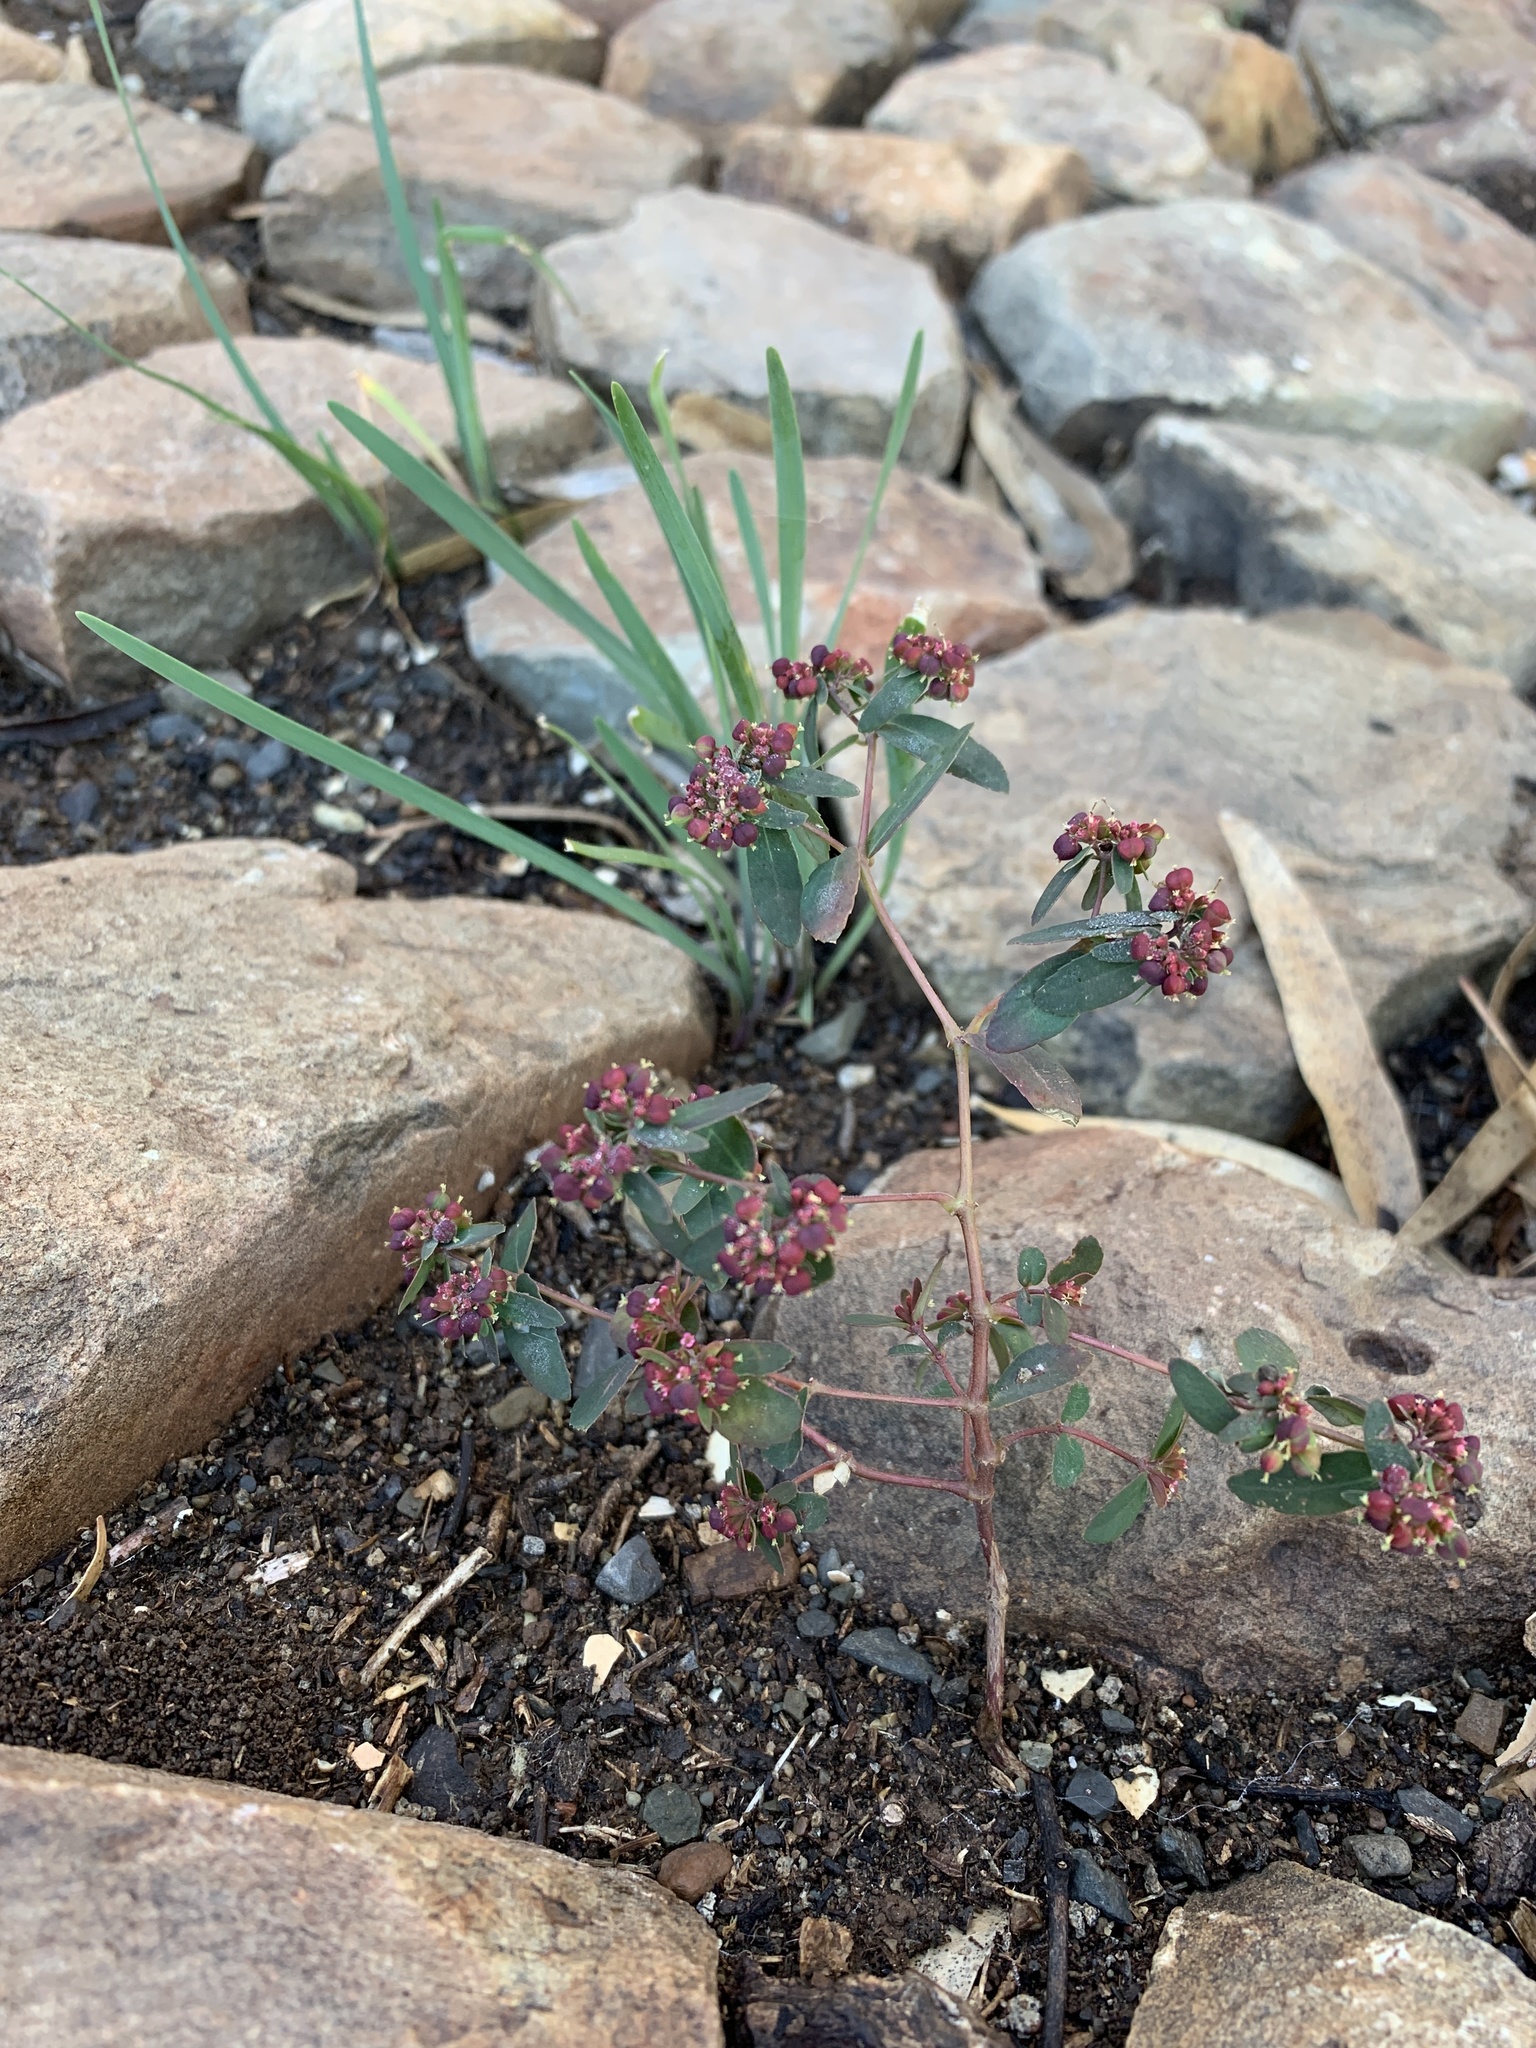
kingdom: Plantae
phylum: Tracheophyta
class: Magnoliopsida
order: Malpighiales
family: Euphorbiaceae
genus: Euphorbia
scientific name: Euphorbia nutans
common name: Eyebane
